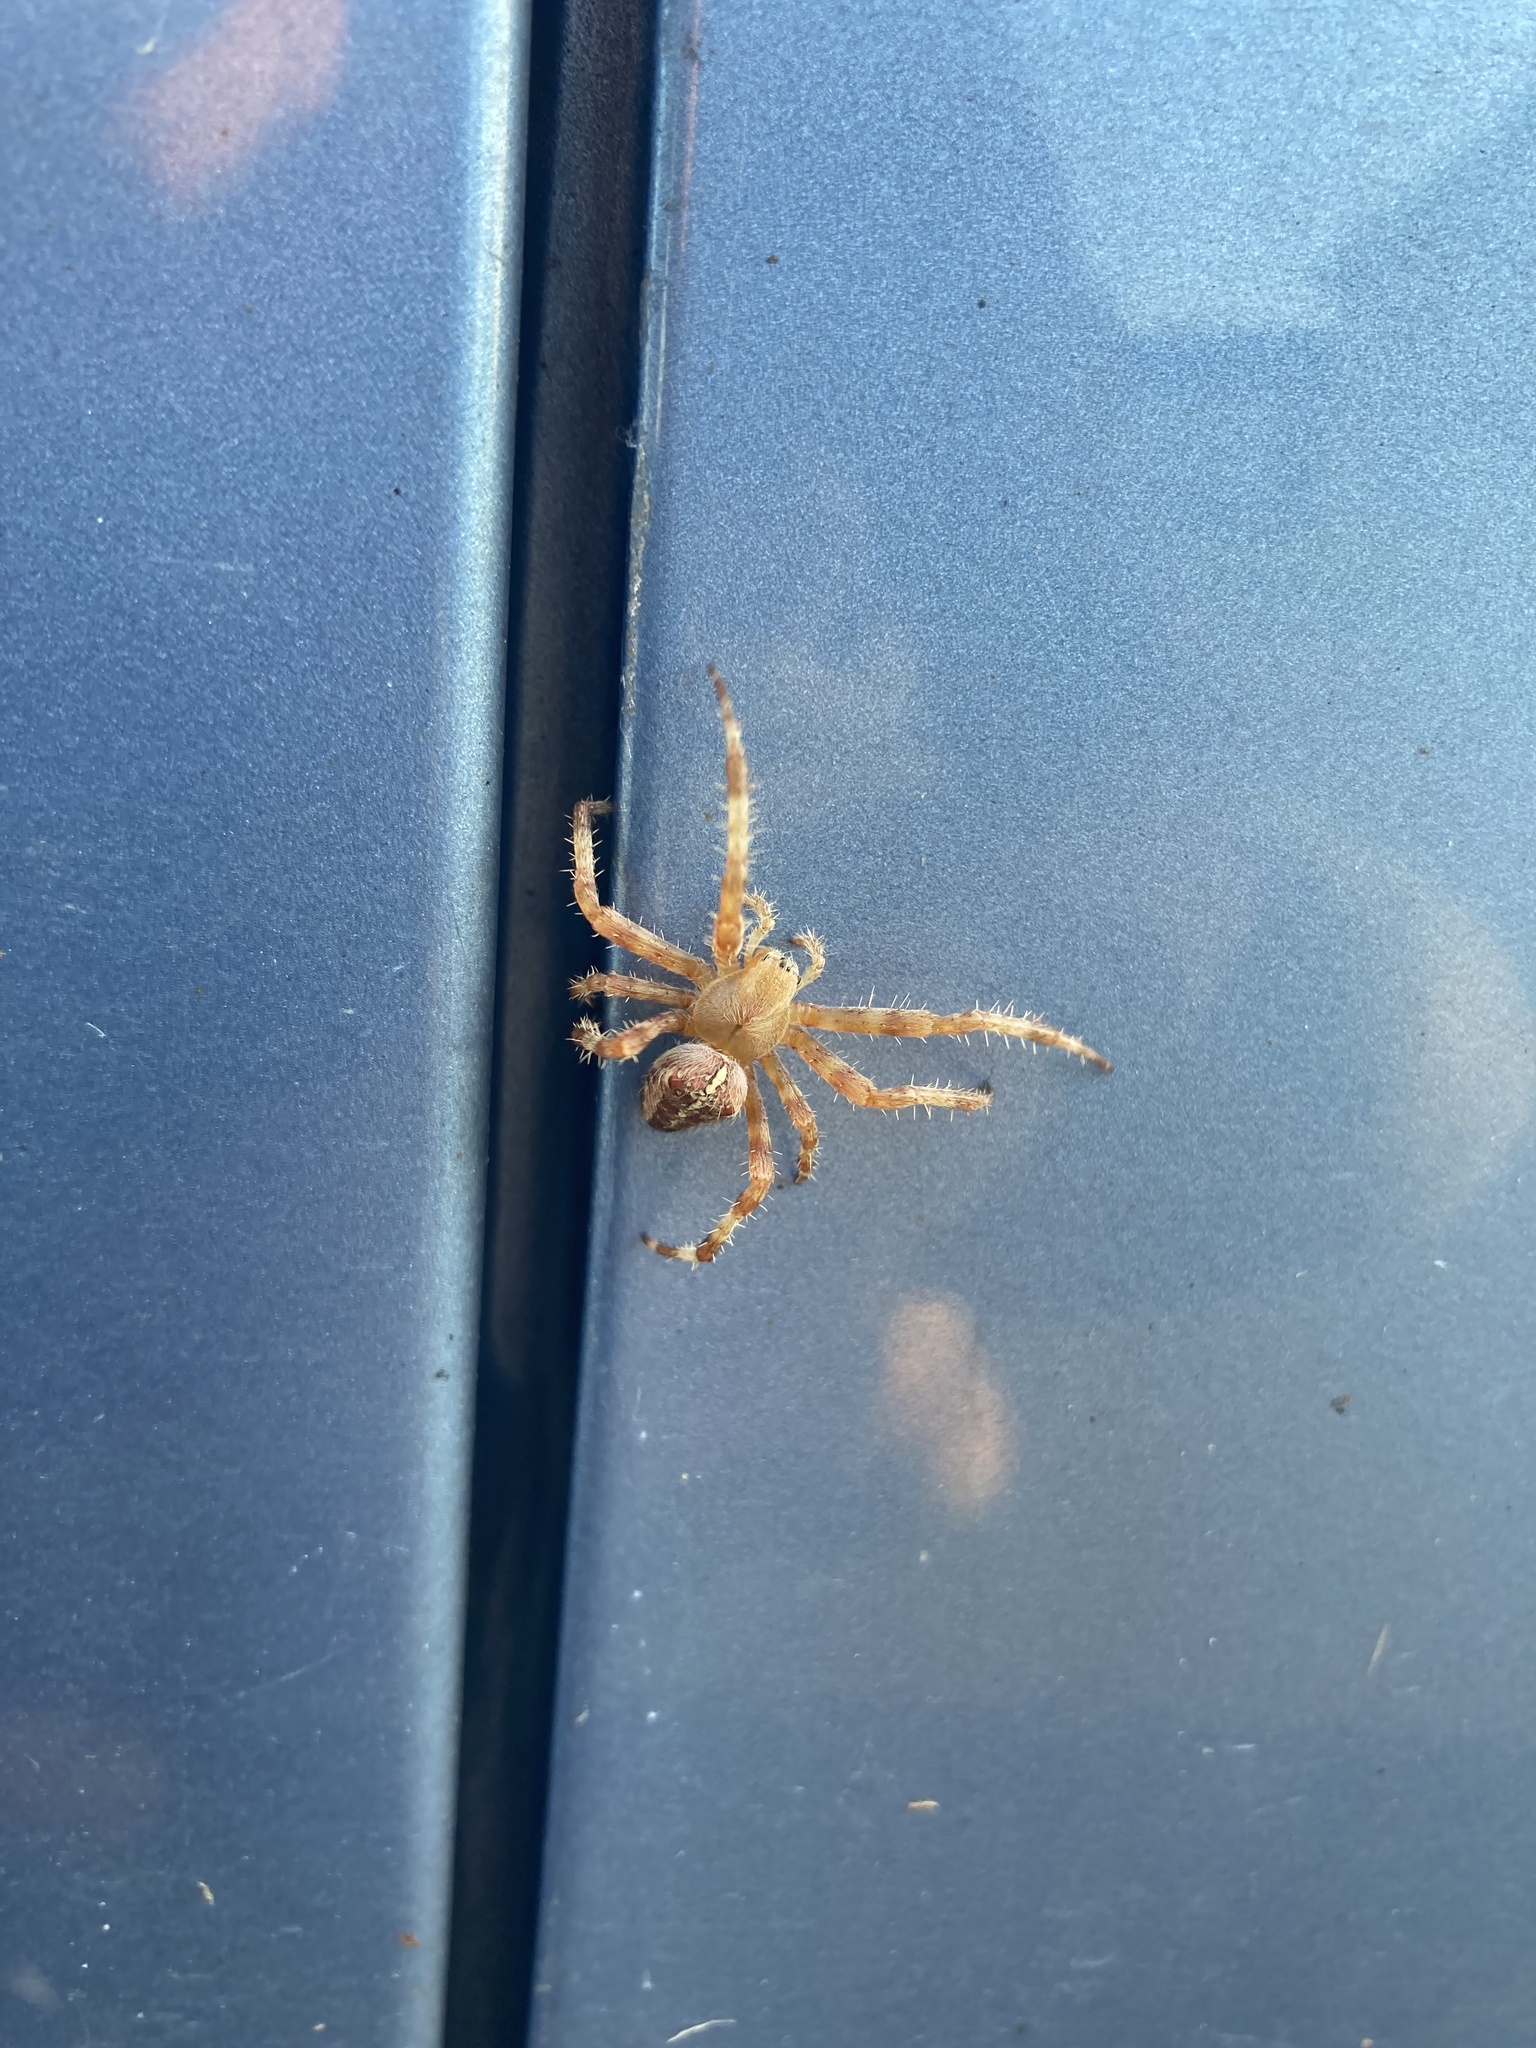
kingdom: Animalia
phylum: Arthropoda
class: Arachnida
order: Araneae
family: Araneidae
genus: Araneus
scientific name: Araneus diadematus
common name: Cross orbweaver
